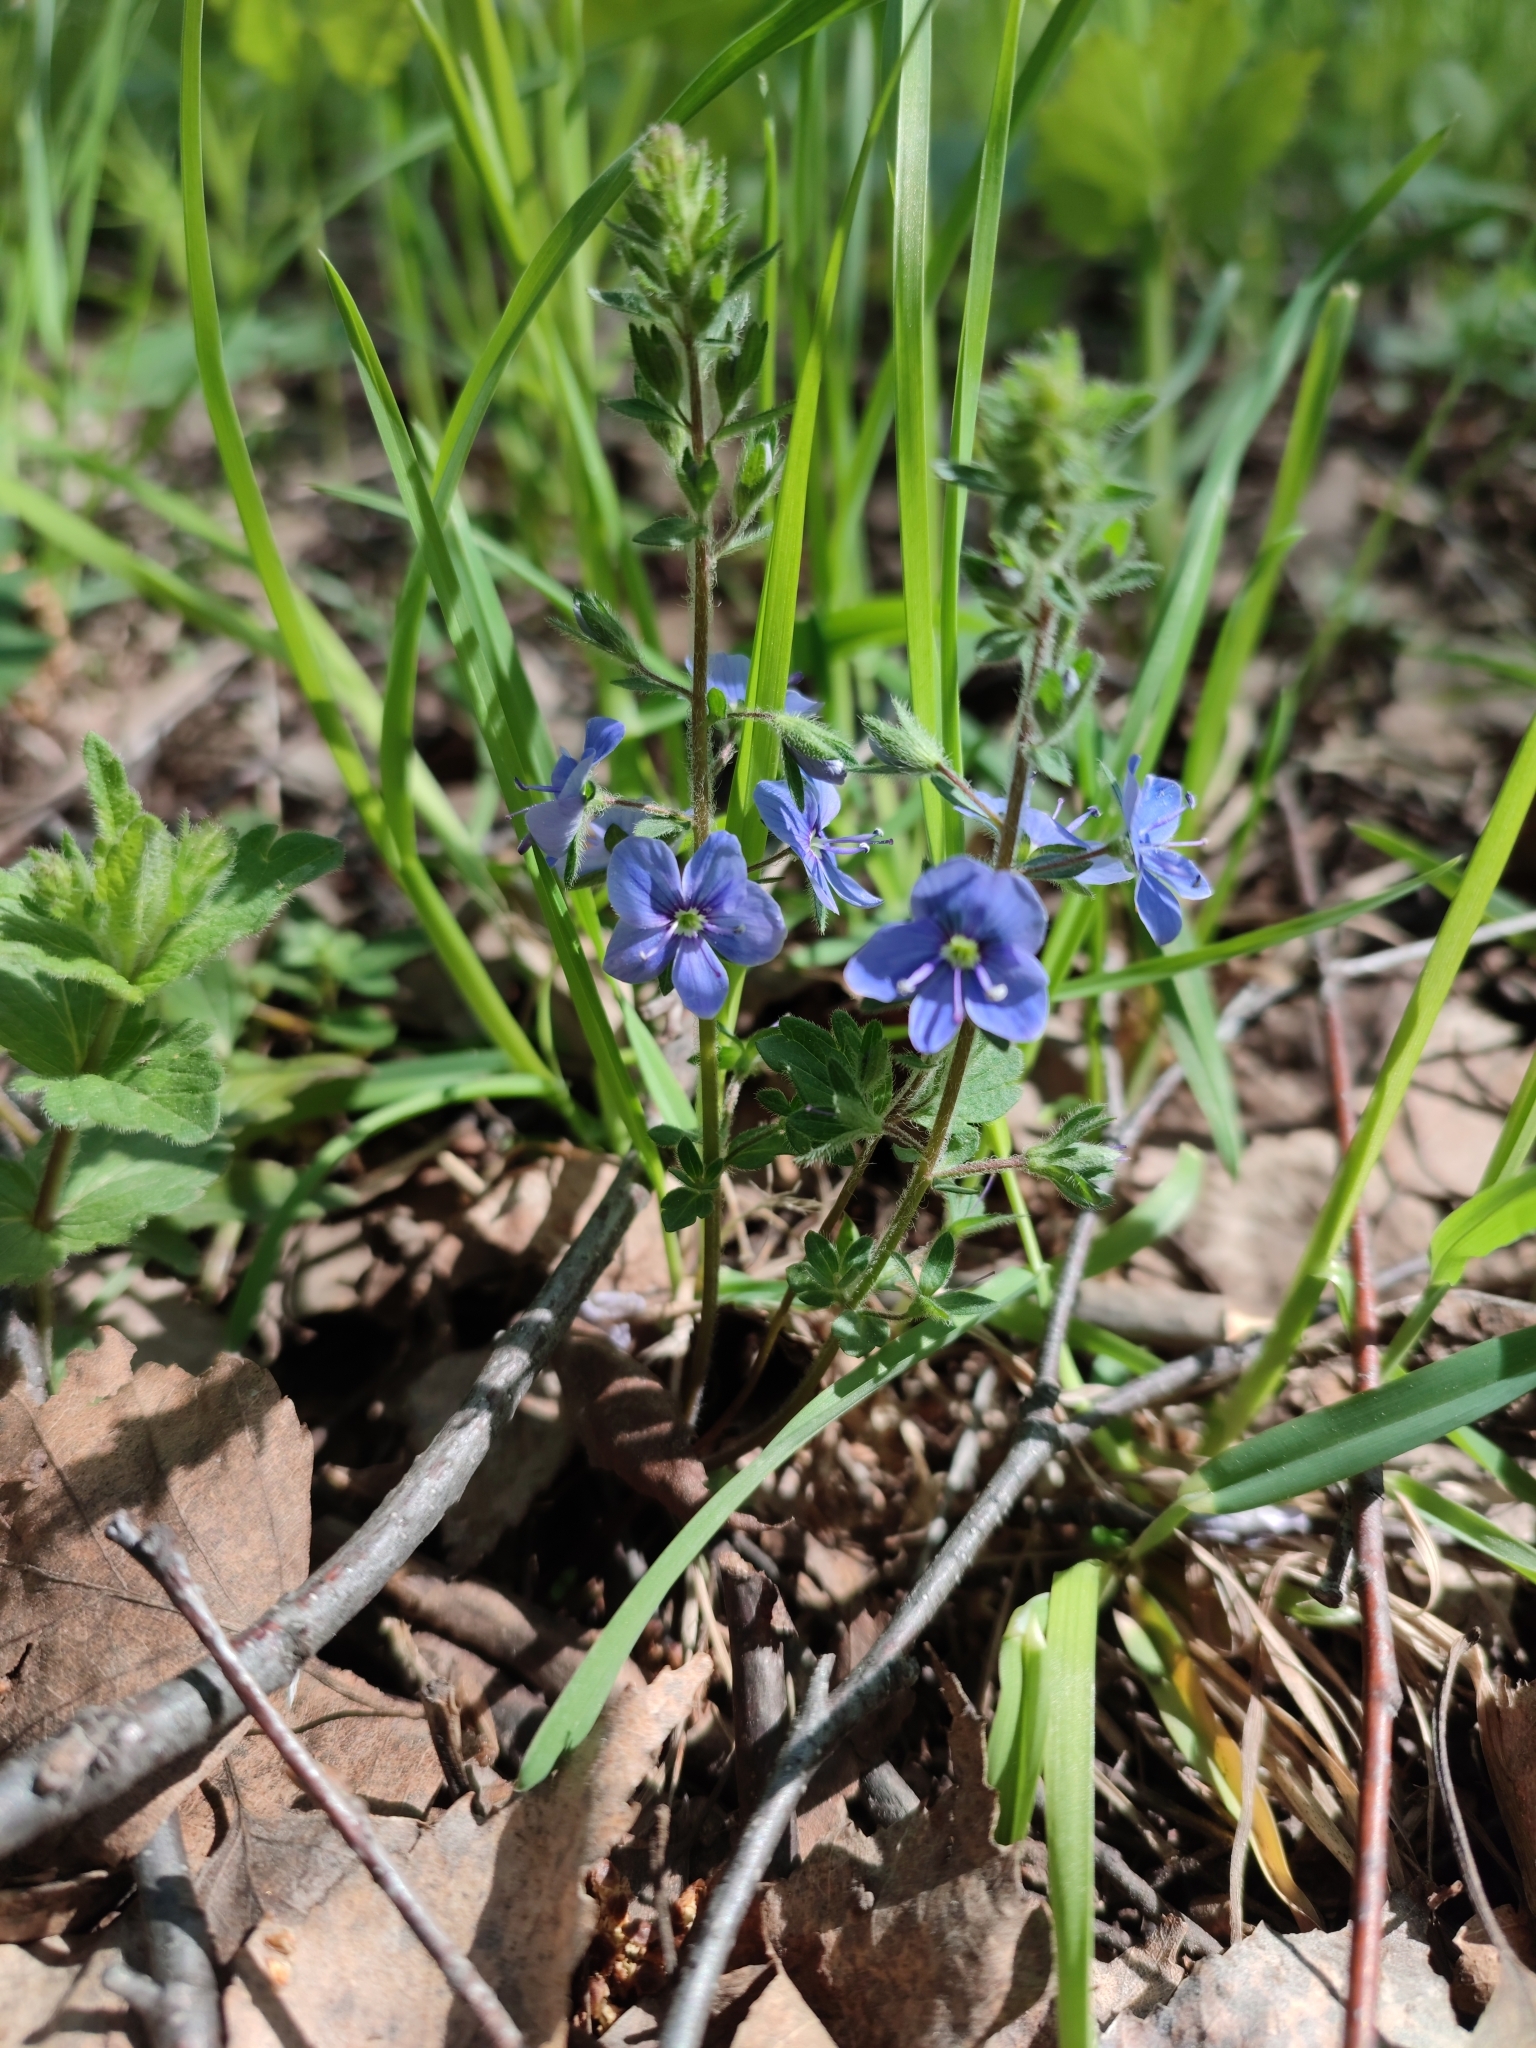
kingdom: Plantae
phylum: Tracheophyta
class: Magnoliopsida
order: Lamiales
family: Plantaginaceae
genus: Veronica
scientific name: Veronica chamaedrys
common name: Germander speedwell
